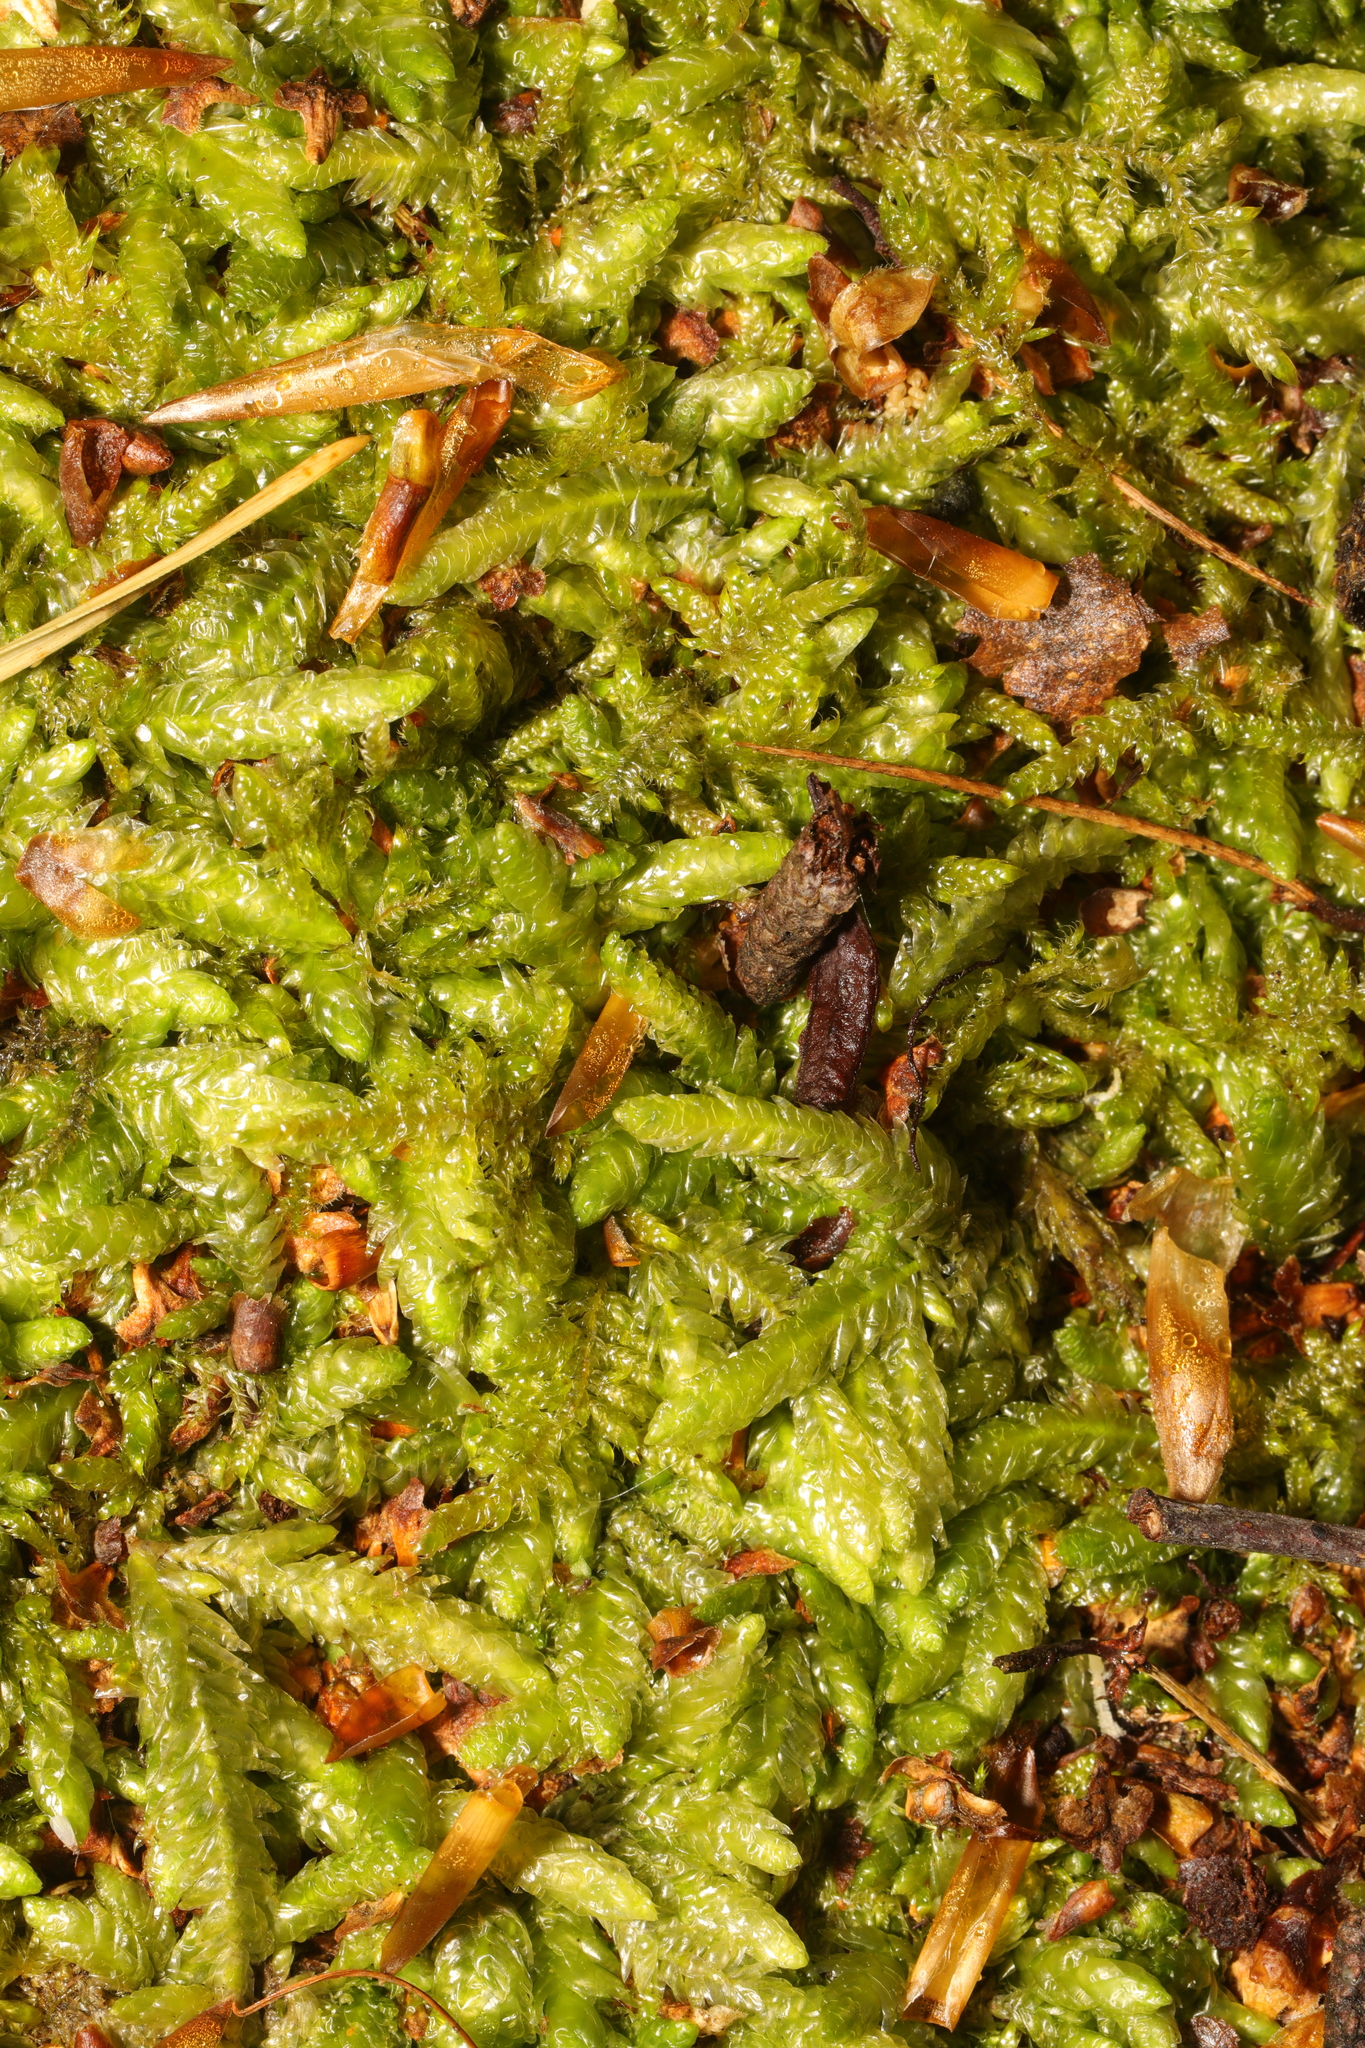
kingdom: Plantae
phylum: Bryophyta
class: Bryopsida
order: Hypnales
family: Plagiotheciaceae
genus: Plagiothecium
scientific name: Plagiothecium undulatum
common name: Waved silk-moss
